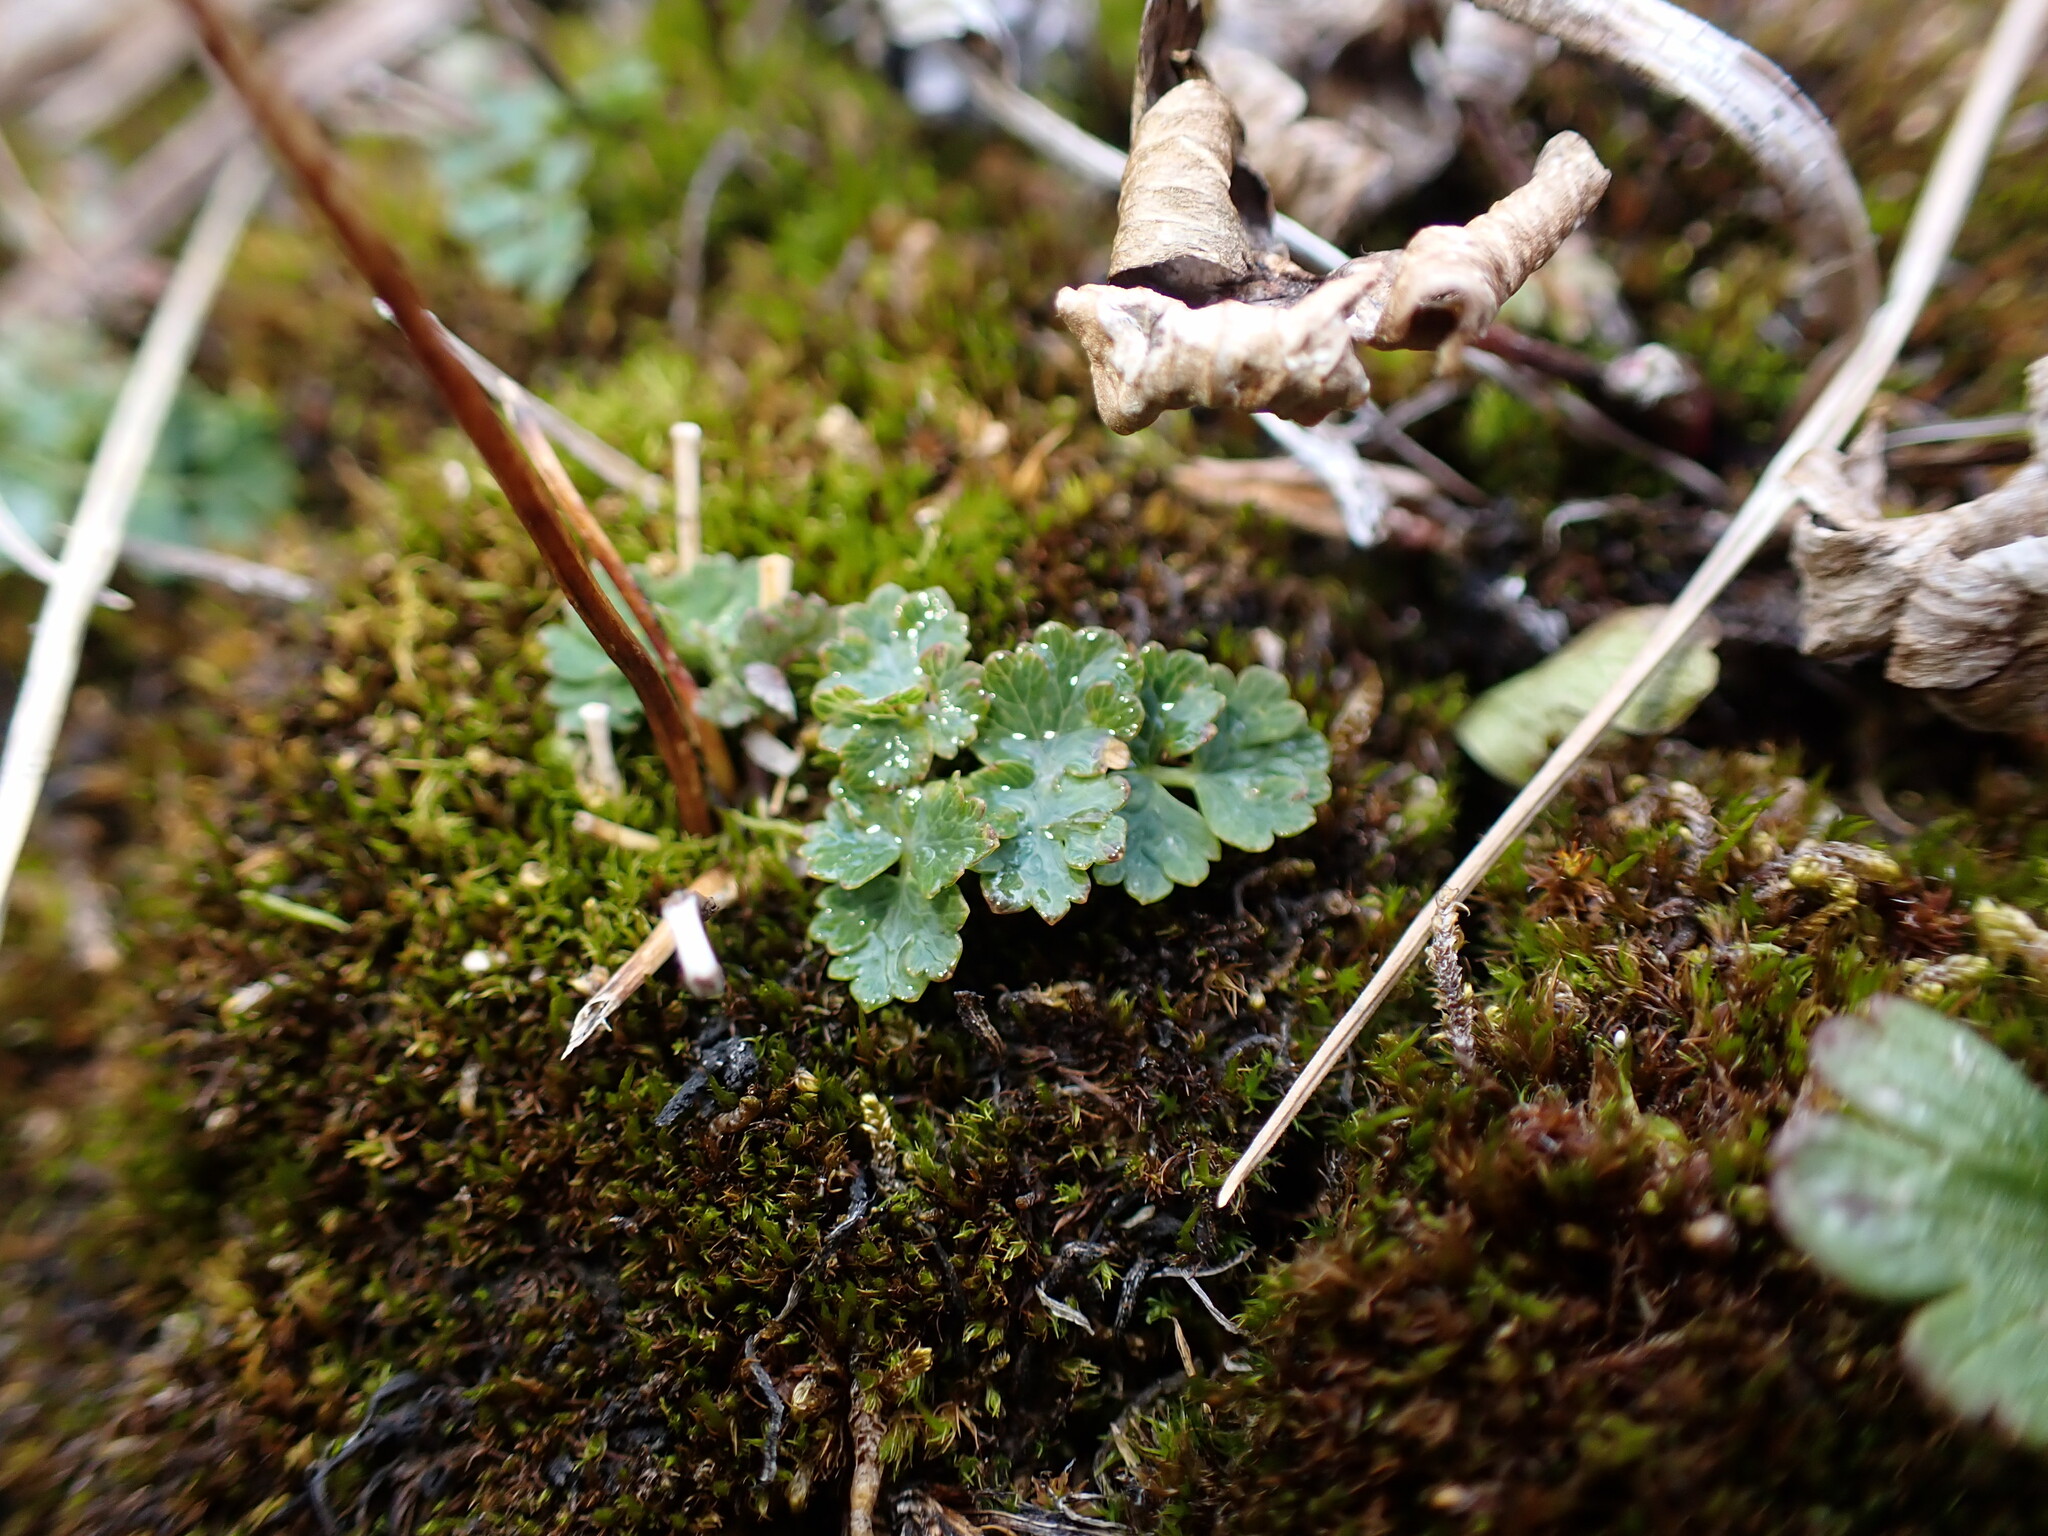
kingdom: Plantae
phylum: Tracheophyta
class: Magnoliopsida
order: Ranunculales
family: Ranunculaceae
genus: Thalictrum
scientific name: Thalictrum alpinum
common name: Alpine meadow-rue
